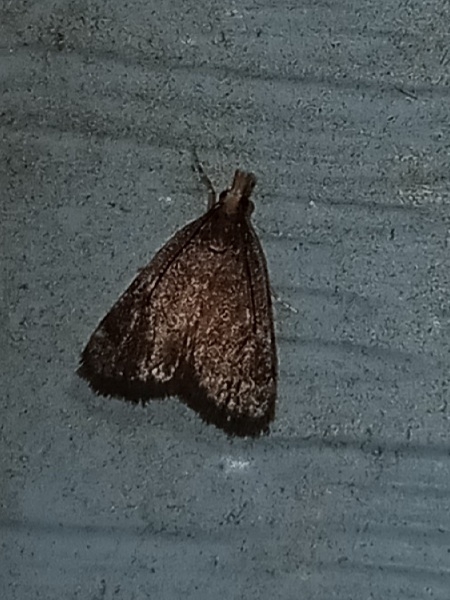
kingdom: Animalia
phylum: Arthropoda
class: Insecta
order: Lepidoptera
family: Crambidae
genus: Pyrausta
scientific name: Pyrausta merrickalis
